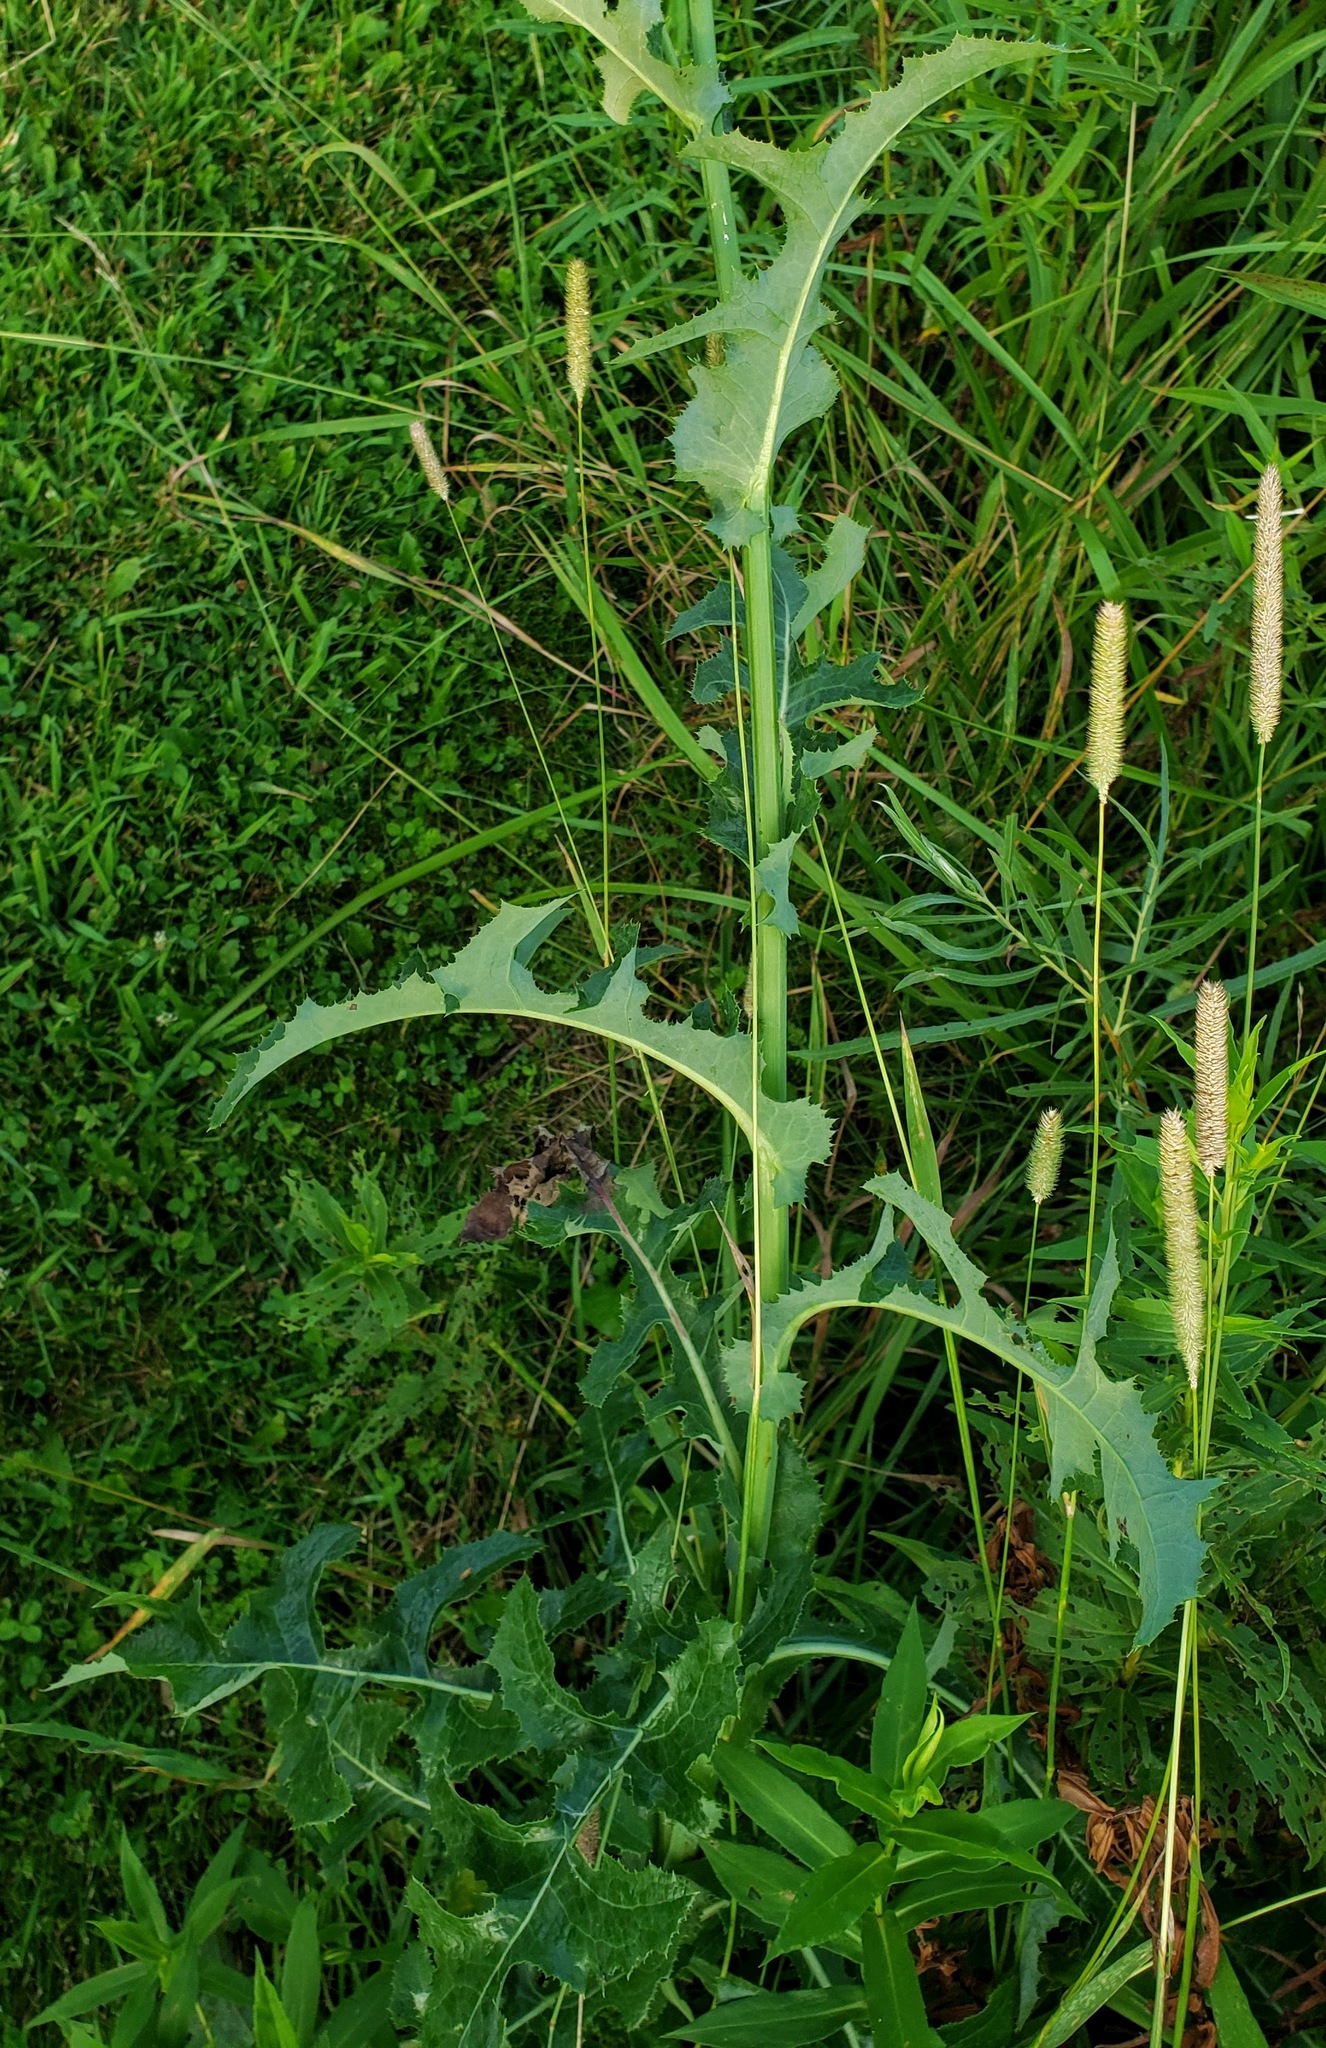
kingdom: Plantae
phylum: Tracheophyta
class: Magnoliopsida
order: Asterales
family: Asteraceae
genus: Sonchus
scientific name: Sonchus arvensis
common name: Perennial sow-thistle
